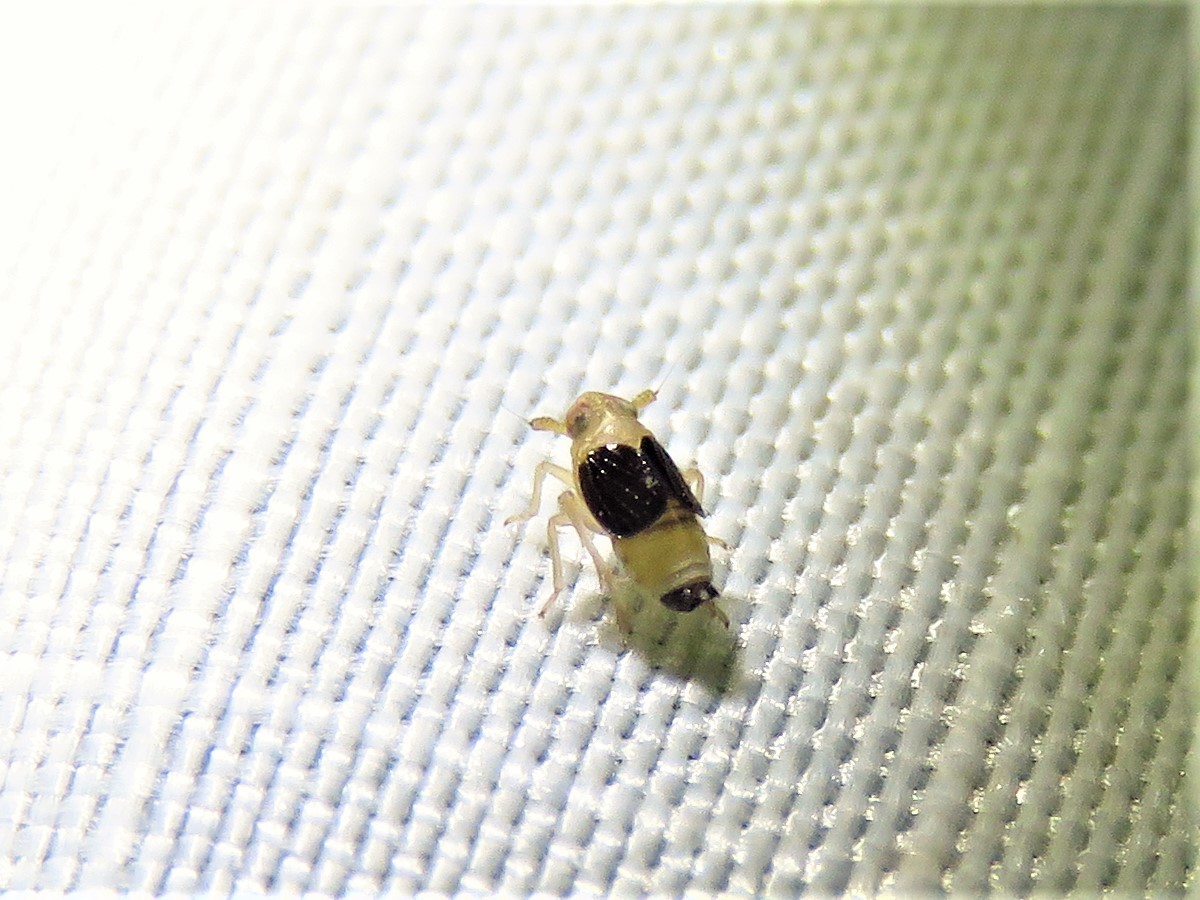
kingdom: Animalia
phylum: Arthropoda
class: Insecta
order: Hemiptera
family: Delphacidae
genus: Syndelphax
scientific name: Syndelphax pseudoseminiger
